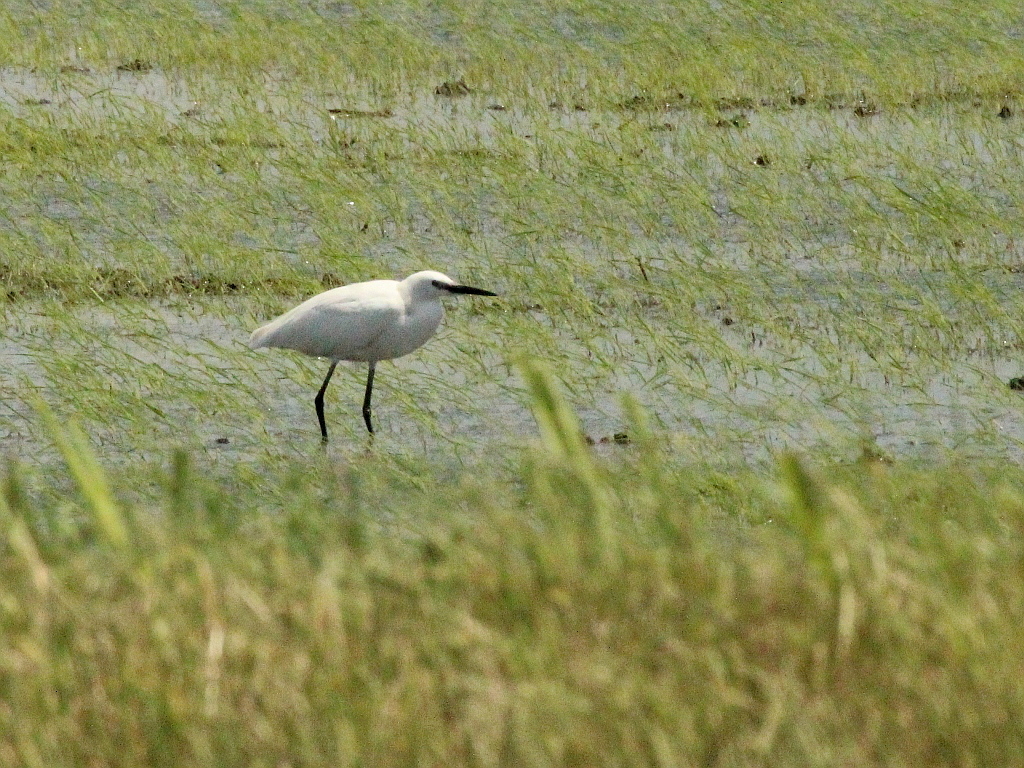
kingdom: Animalia
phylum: Chordata
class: Aves
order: Pelecaniformes
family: Ardeidae
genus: Egretta
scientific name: Egretta garzetta
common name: Little egret
